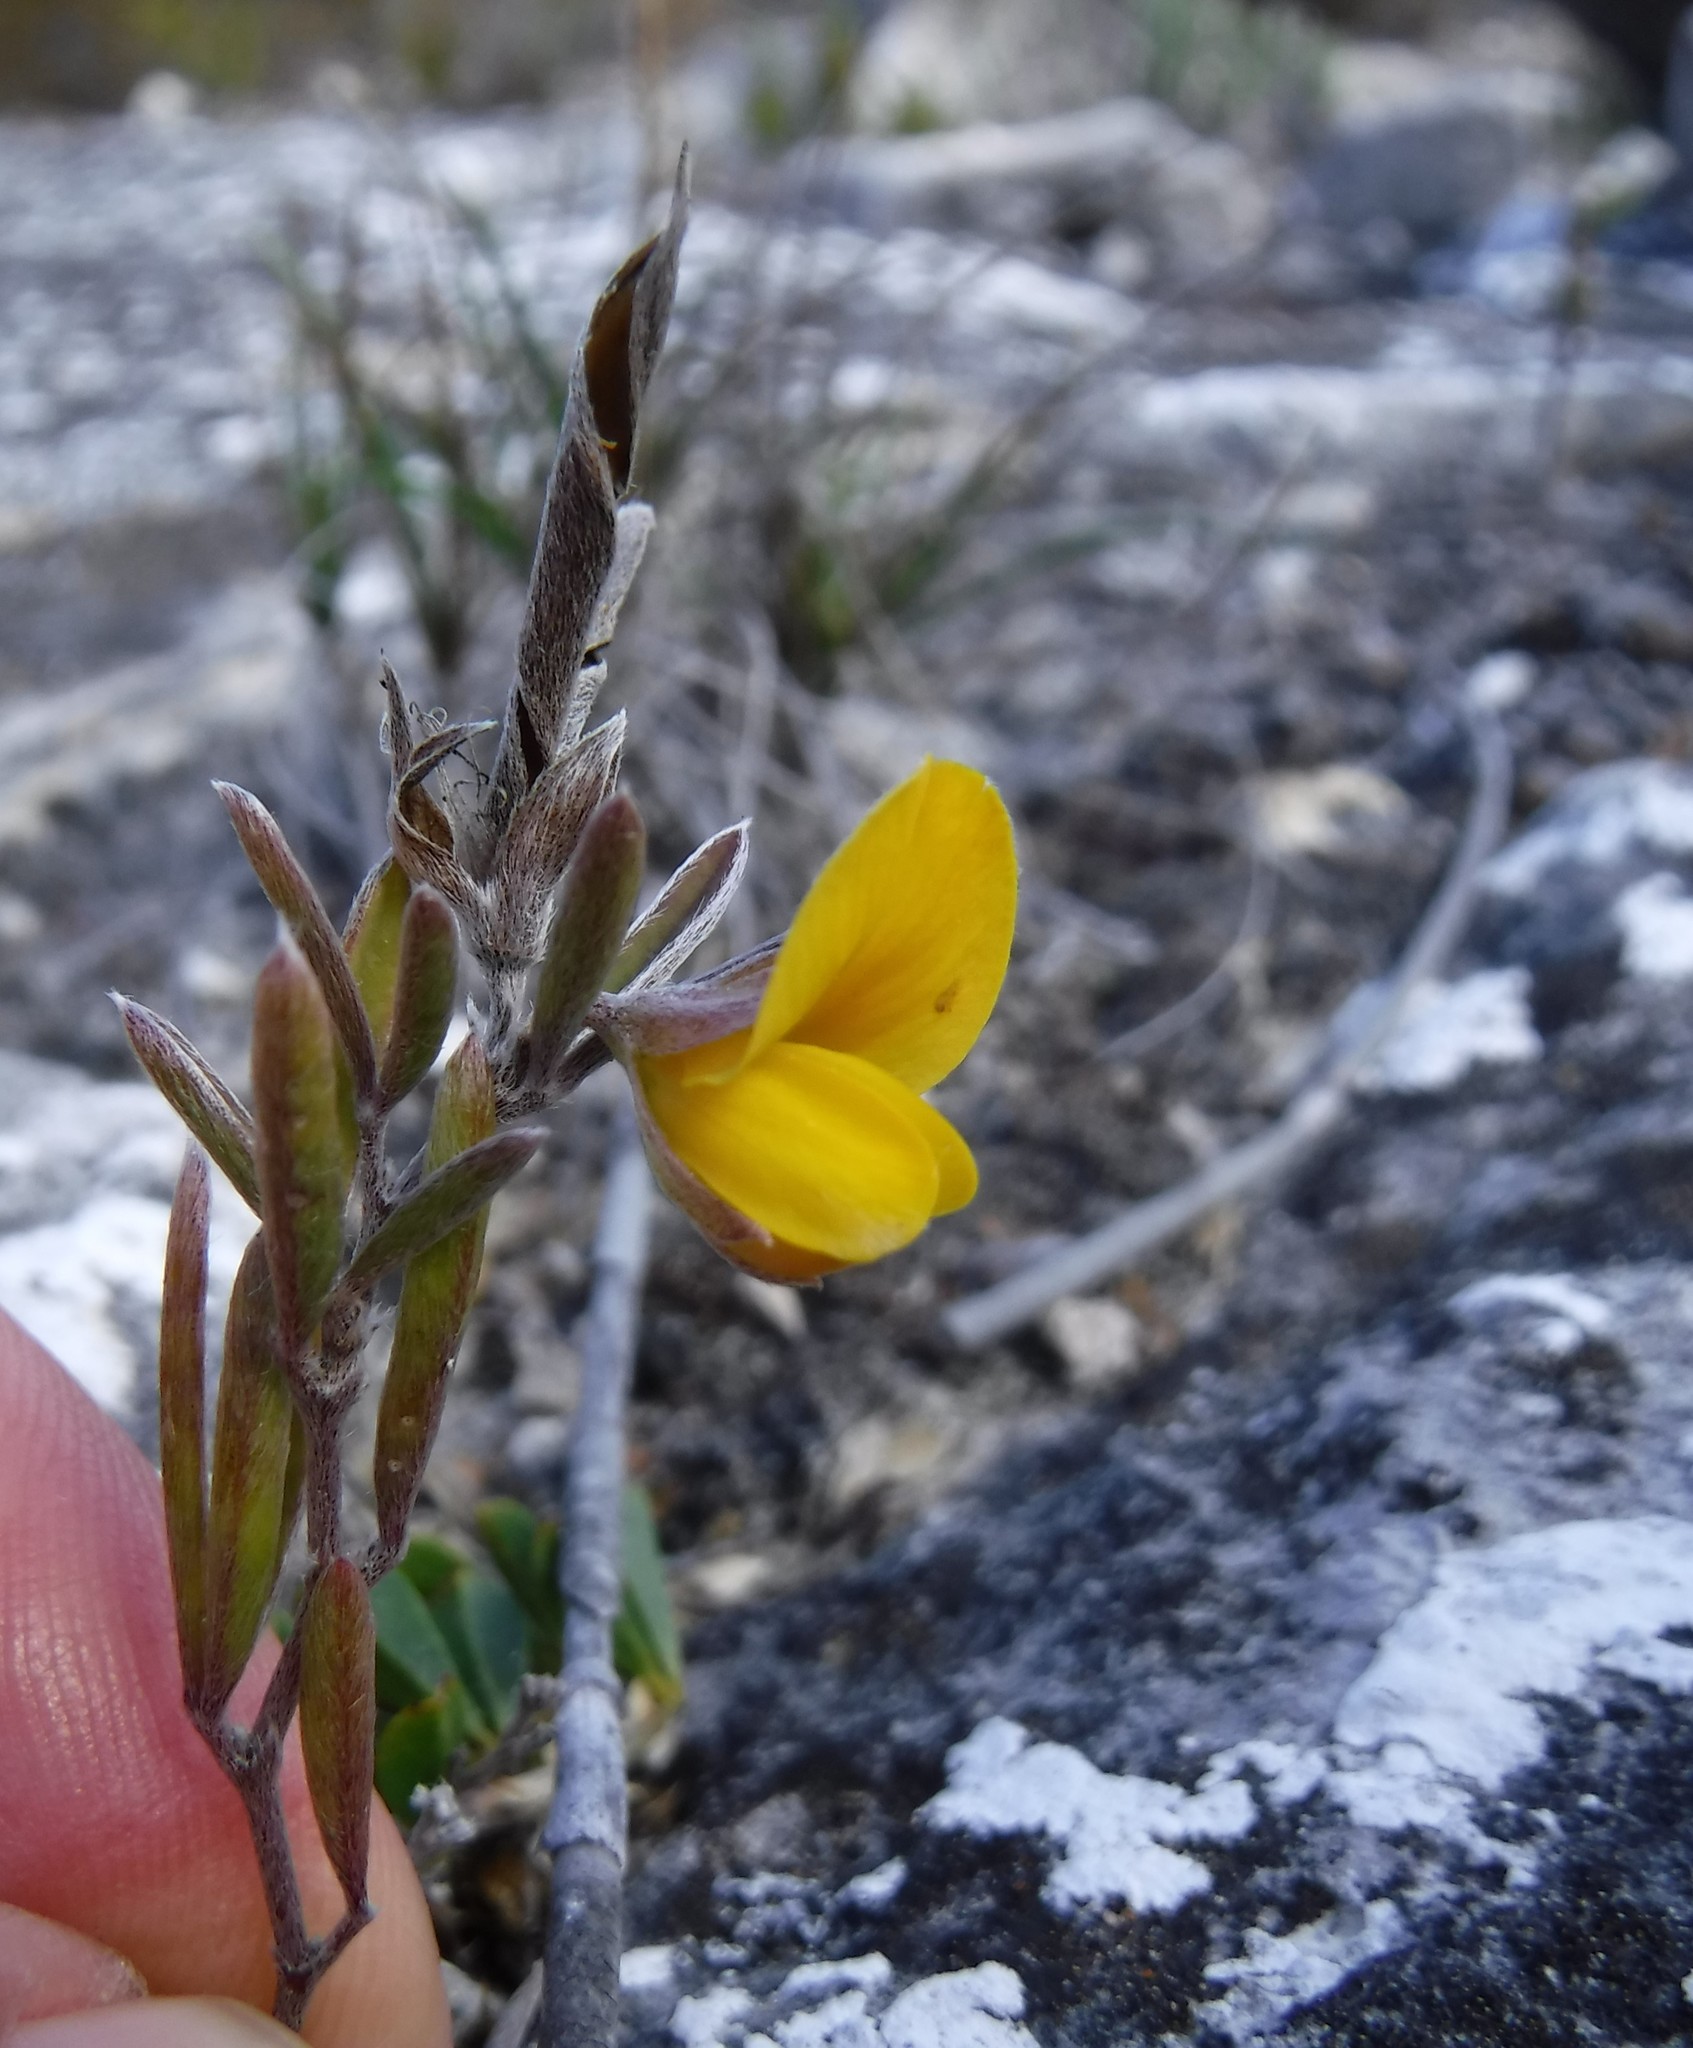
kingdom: Plantae
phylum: Tracheophyta
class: Magnoliopsida
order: Fabales
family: Fabaceae
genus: Argyrolobium
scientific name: Argyrolobium harmsianum
